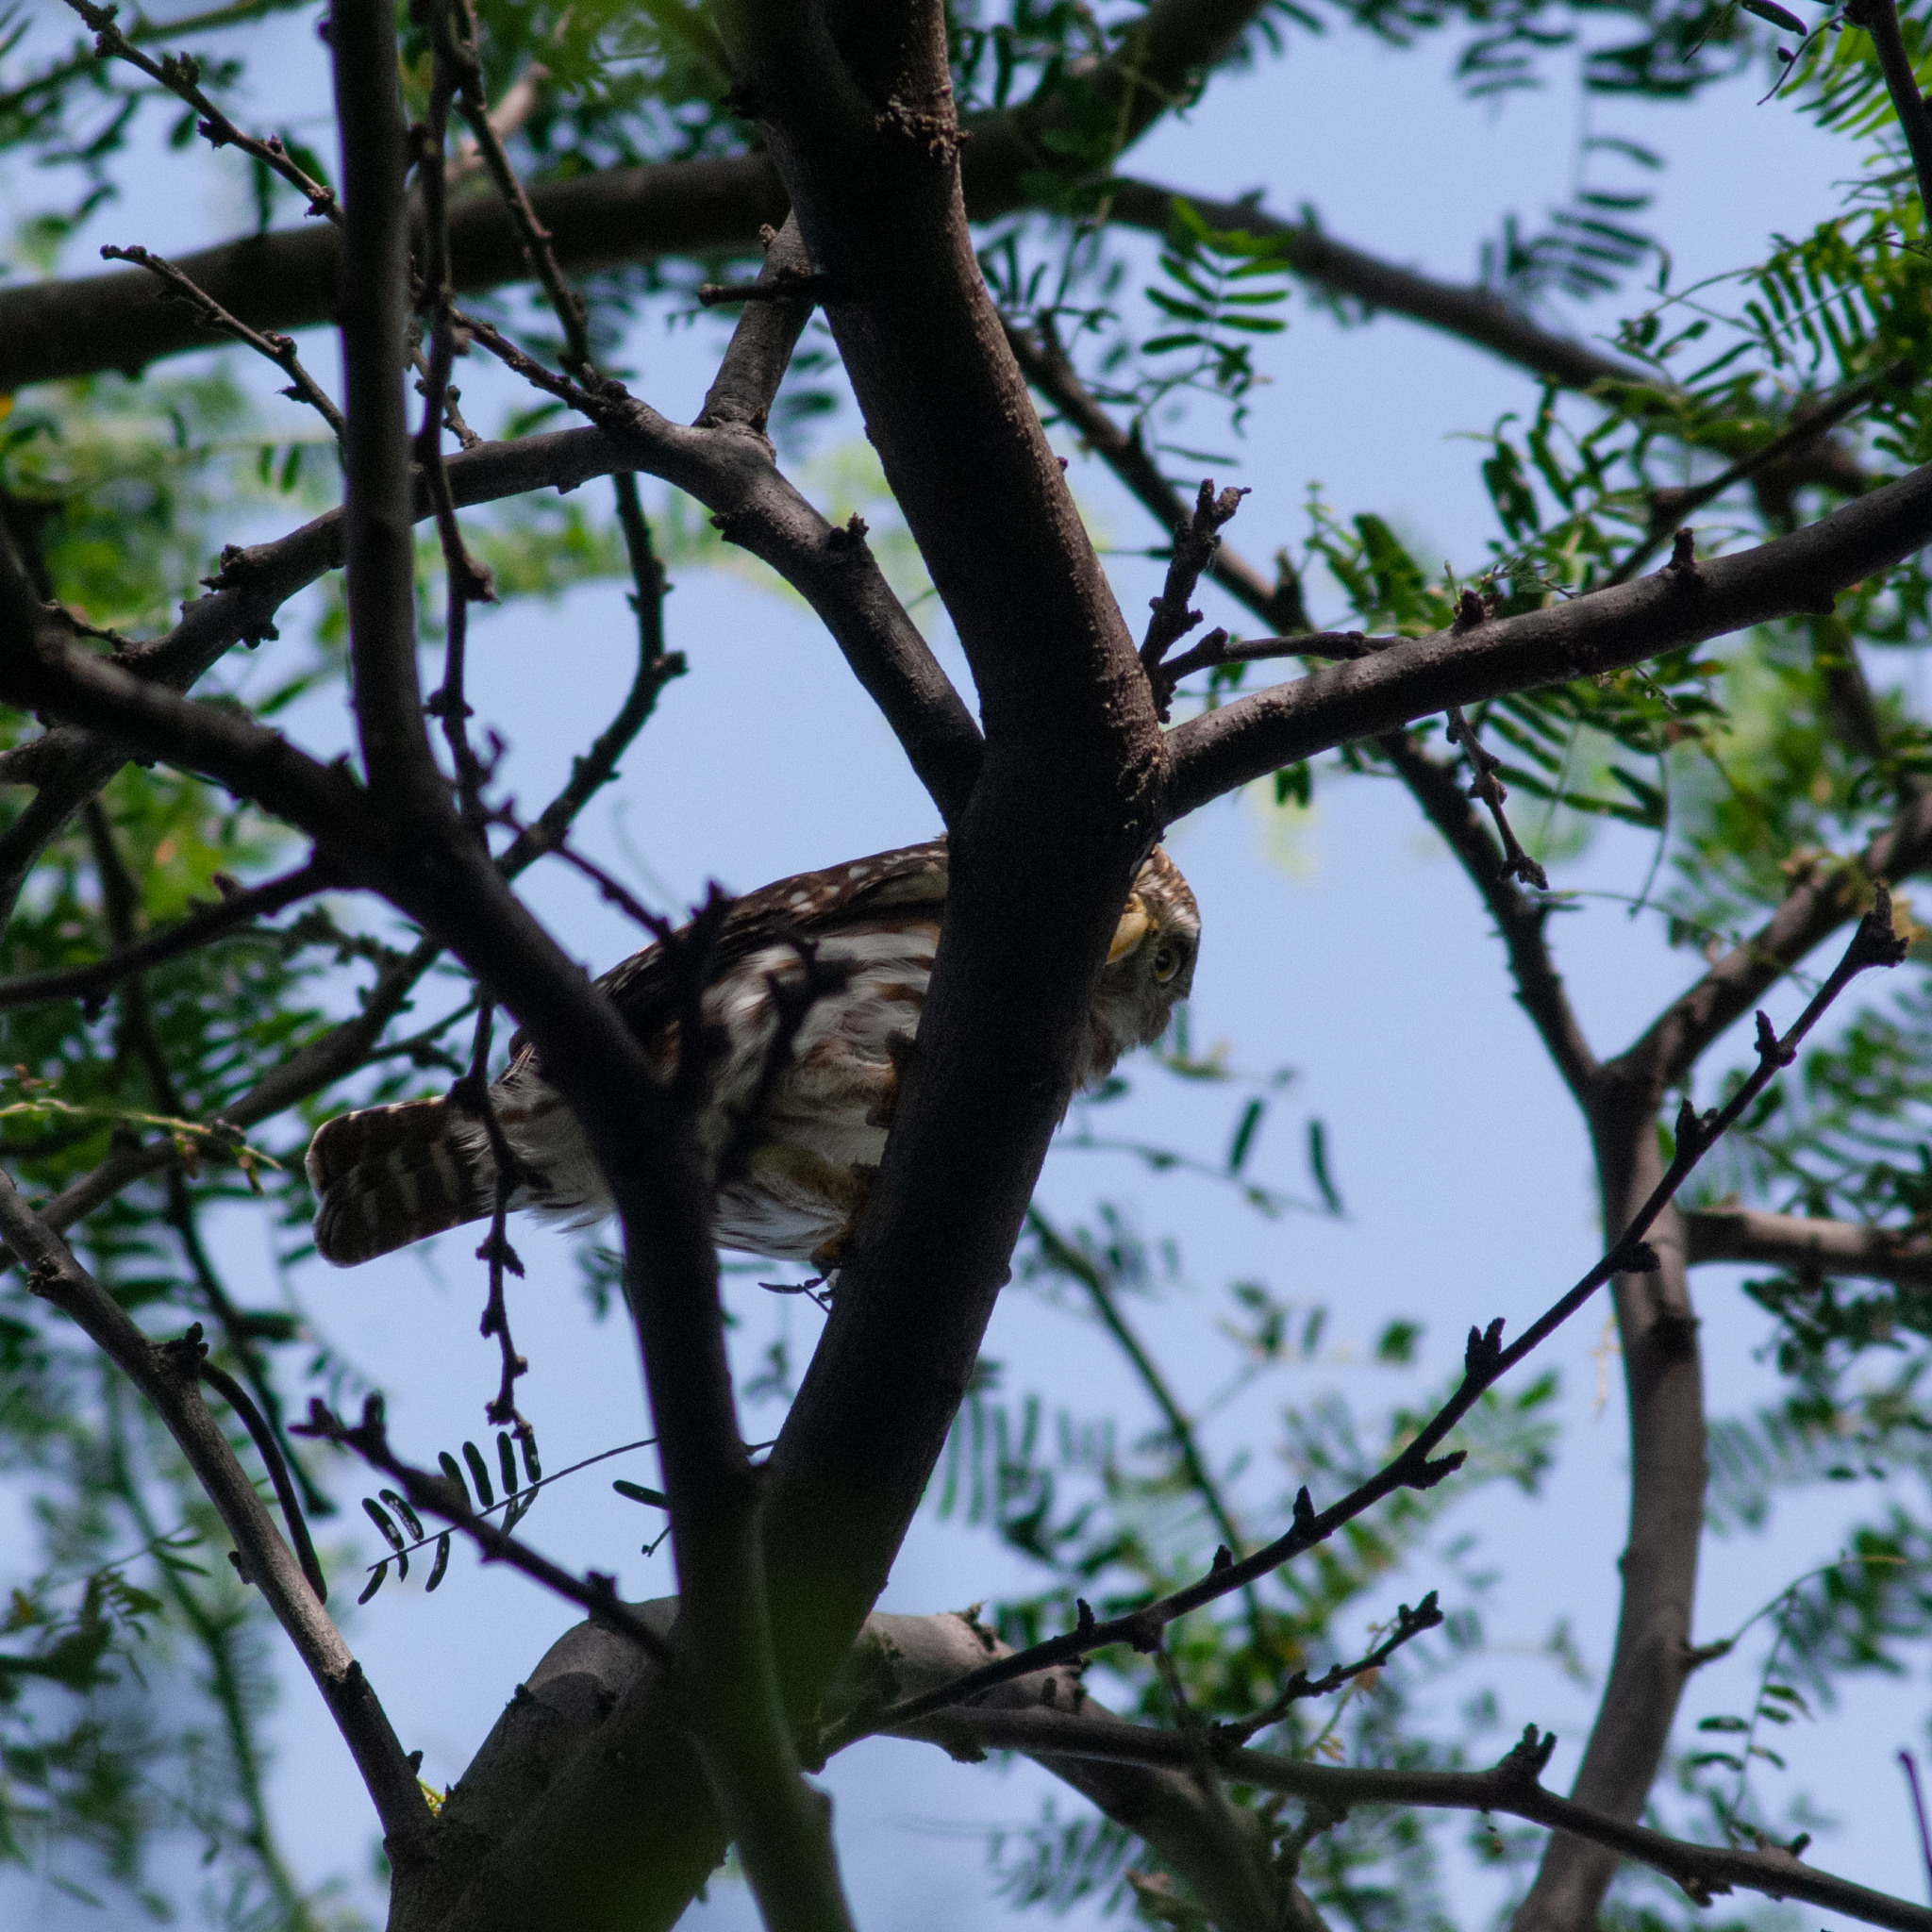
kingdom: Animalia
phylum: Chordata
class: Aves
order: Strigiformes
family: Strigidae
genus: Glaucidium
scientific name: Glaucidium brasilianum
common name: Ferruginous pygmy-owl
